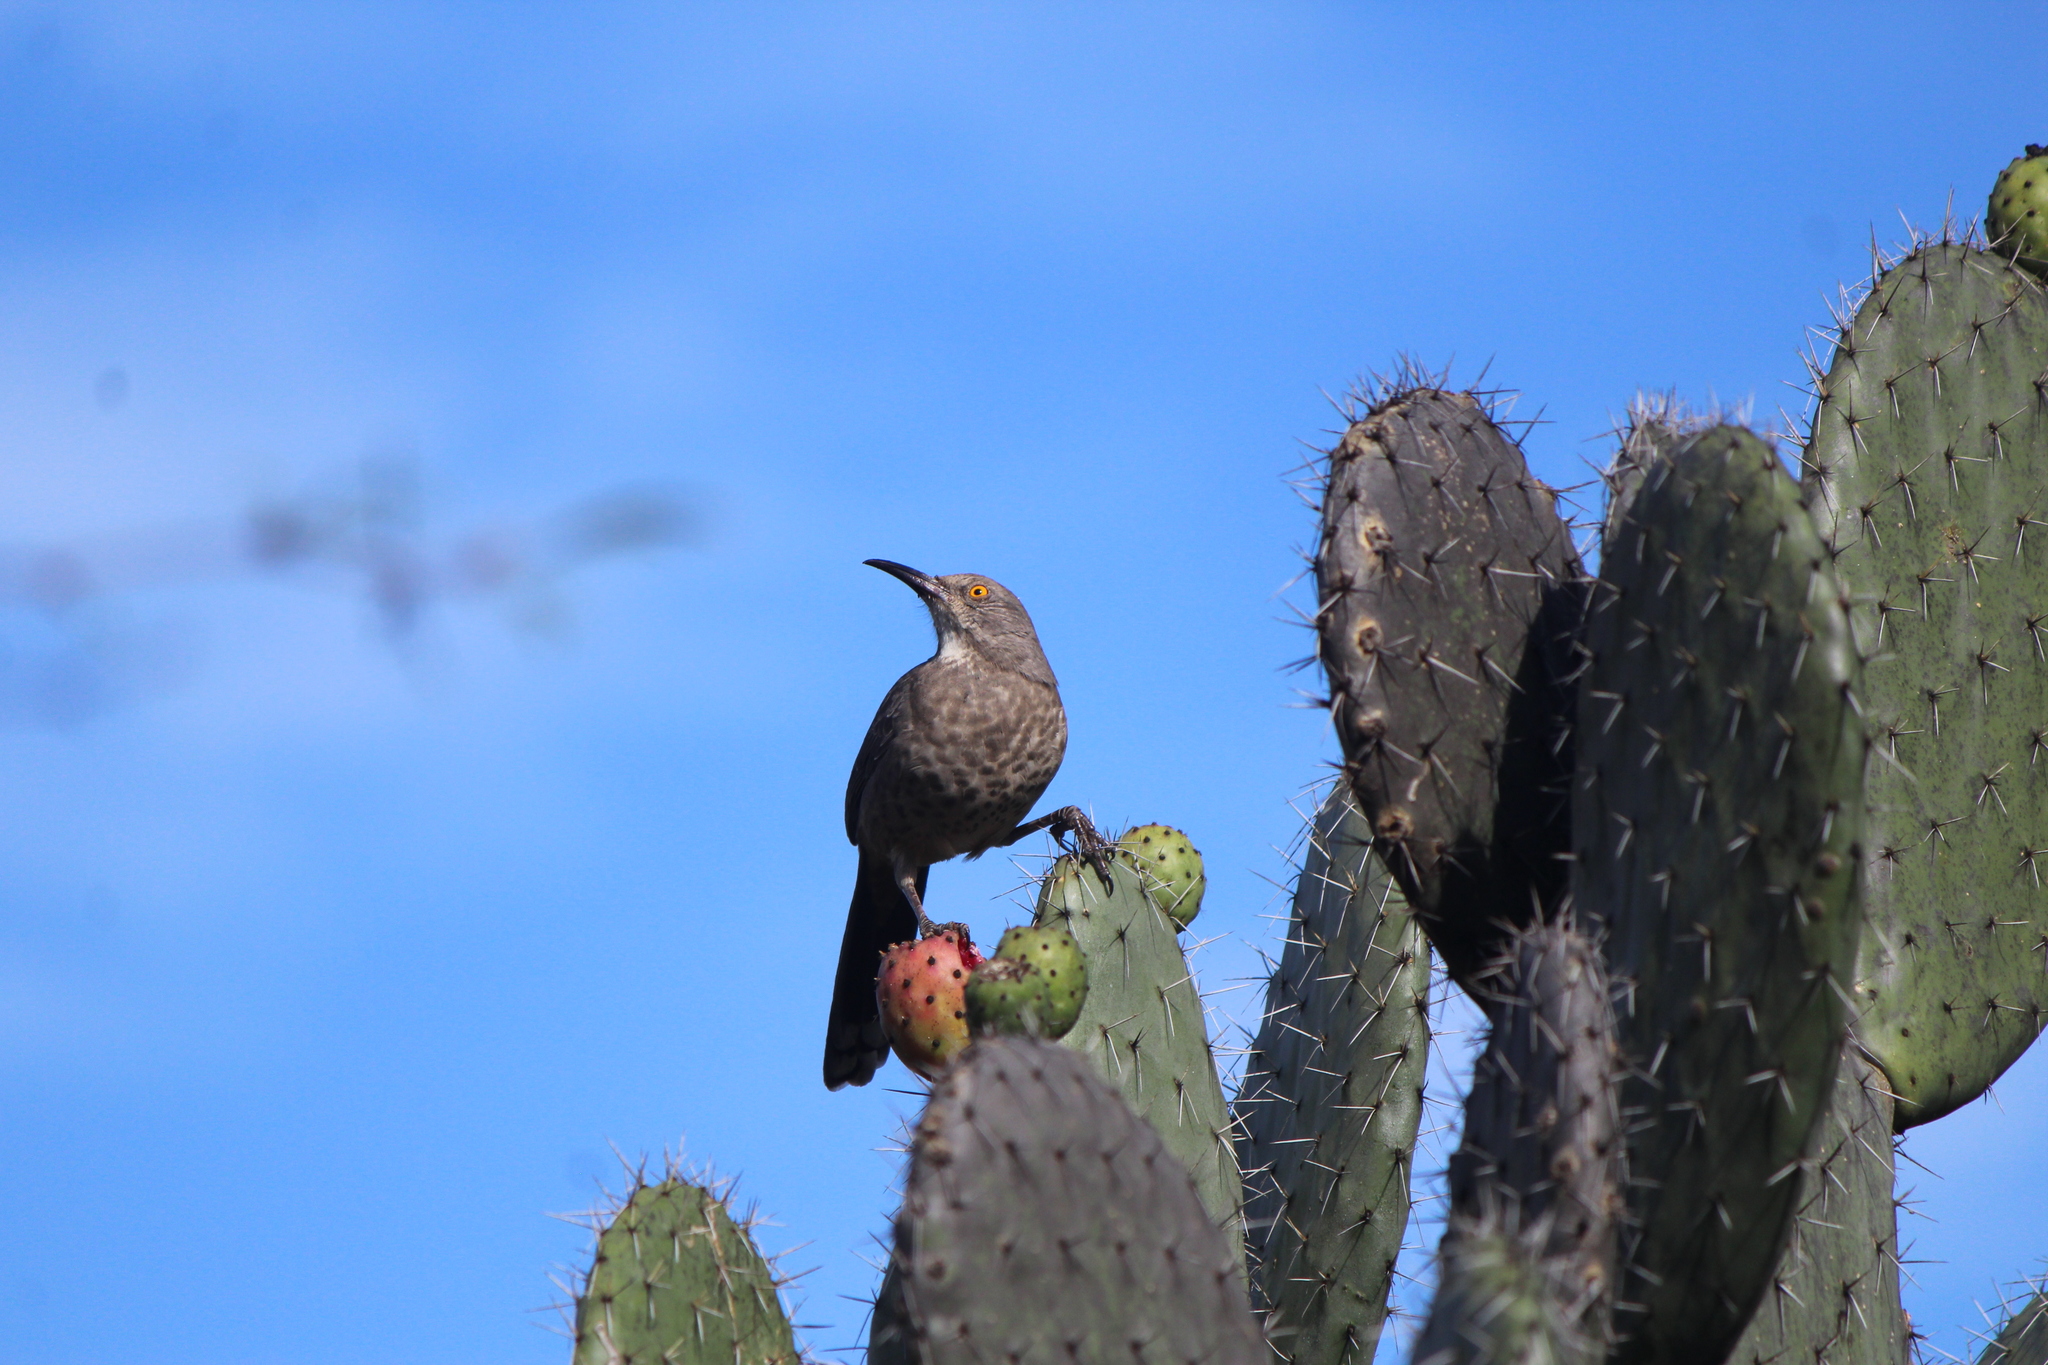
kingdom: Animalia
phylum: Chordata
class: Aves
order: Passeriformes
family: Mimidae
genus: Toxostoma
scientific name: Toxostoma curvirostre
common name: Curve-billed thrasher
